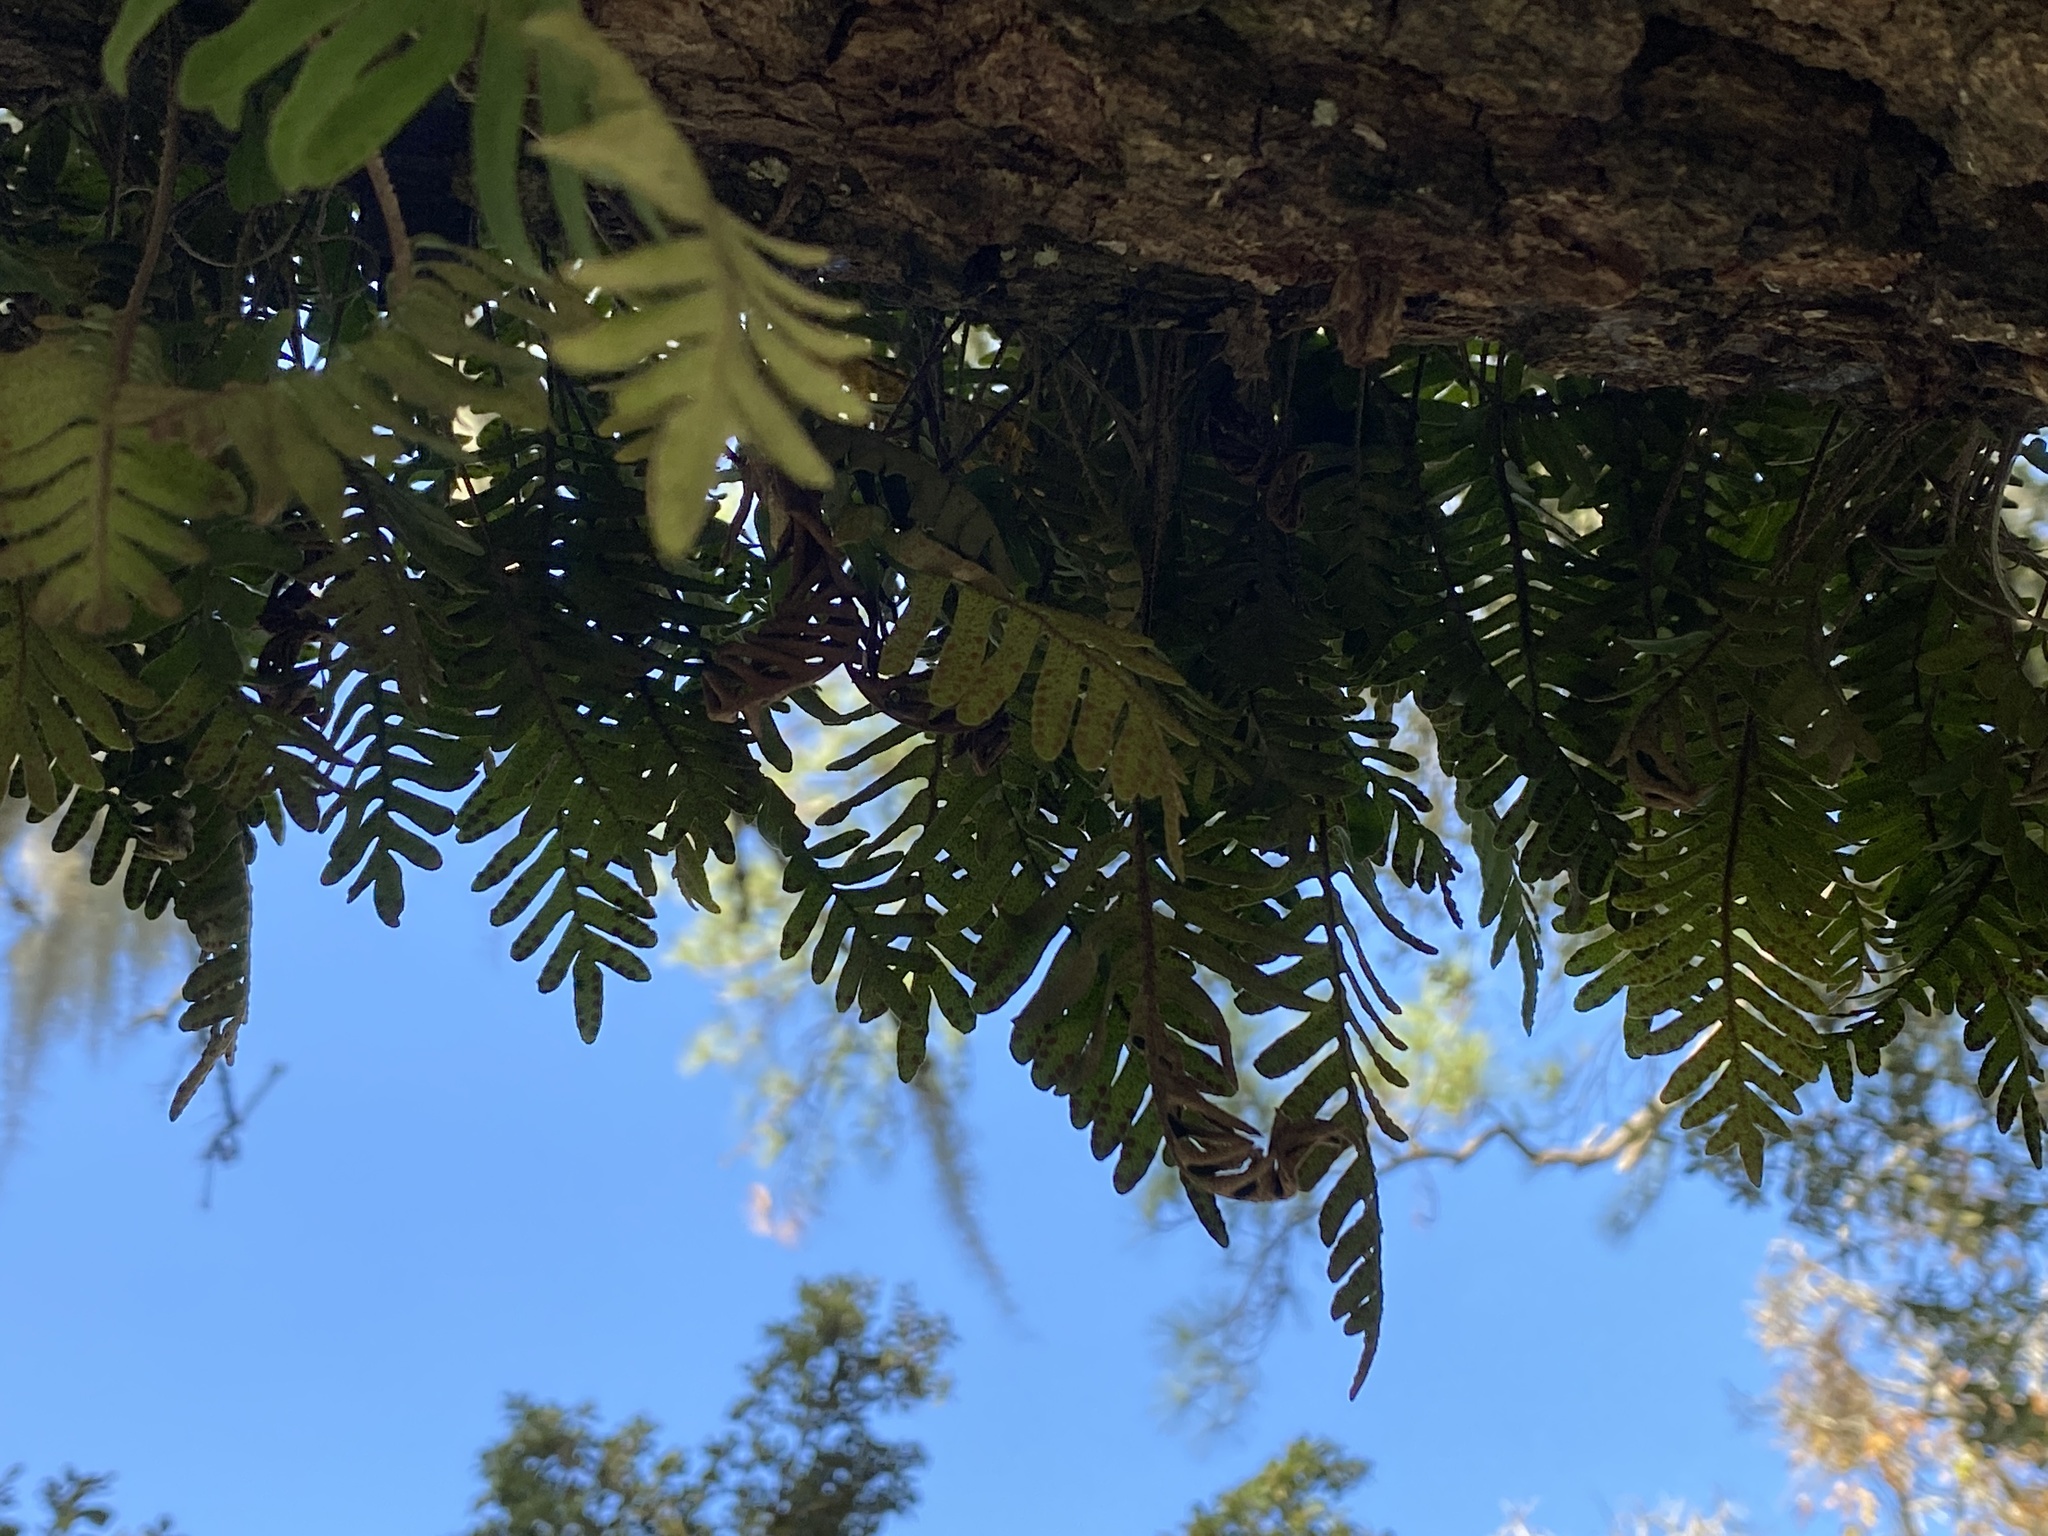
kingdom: Plantae
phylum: Tracheophyta
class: Polypodiopsida
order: Polypodiales
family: Polypodiaceae
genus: Pleopeltis
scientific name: Pleopeltis michauxiana
